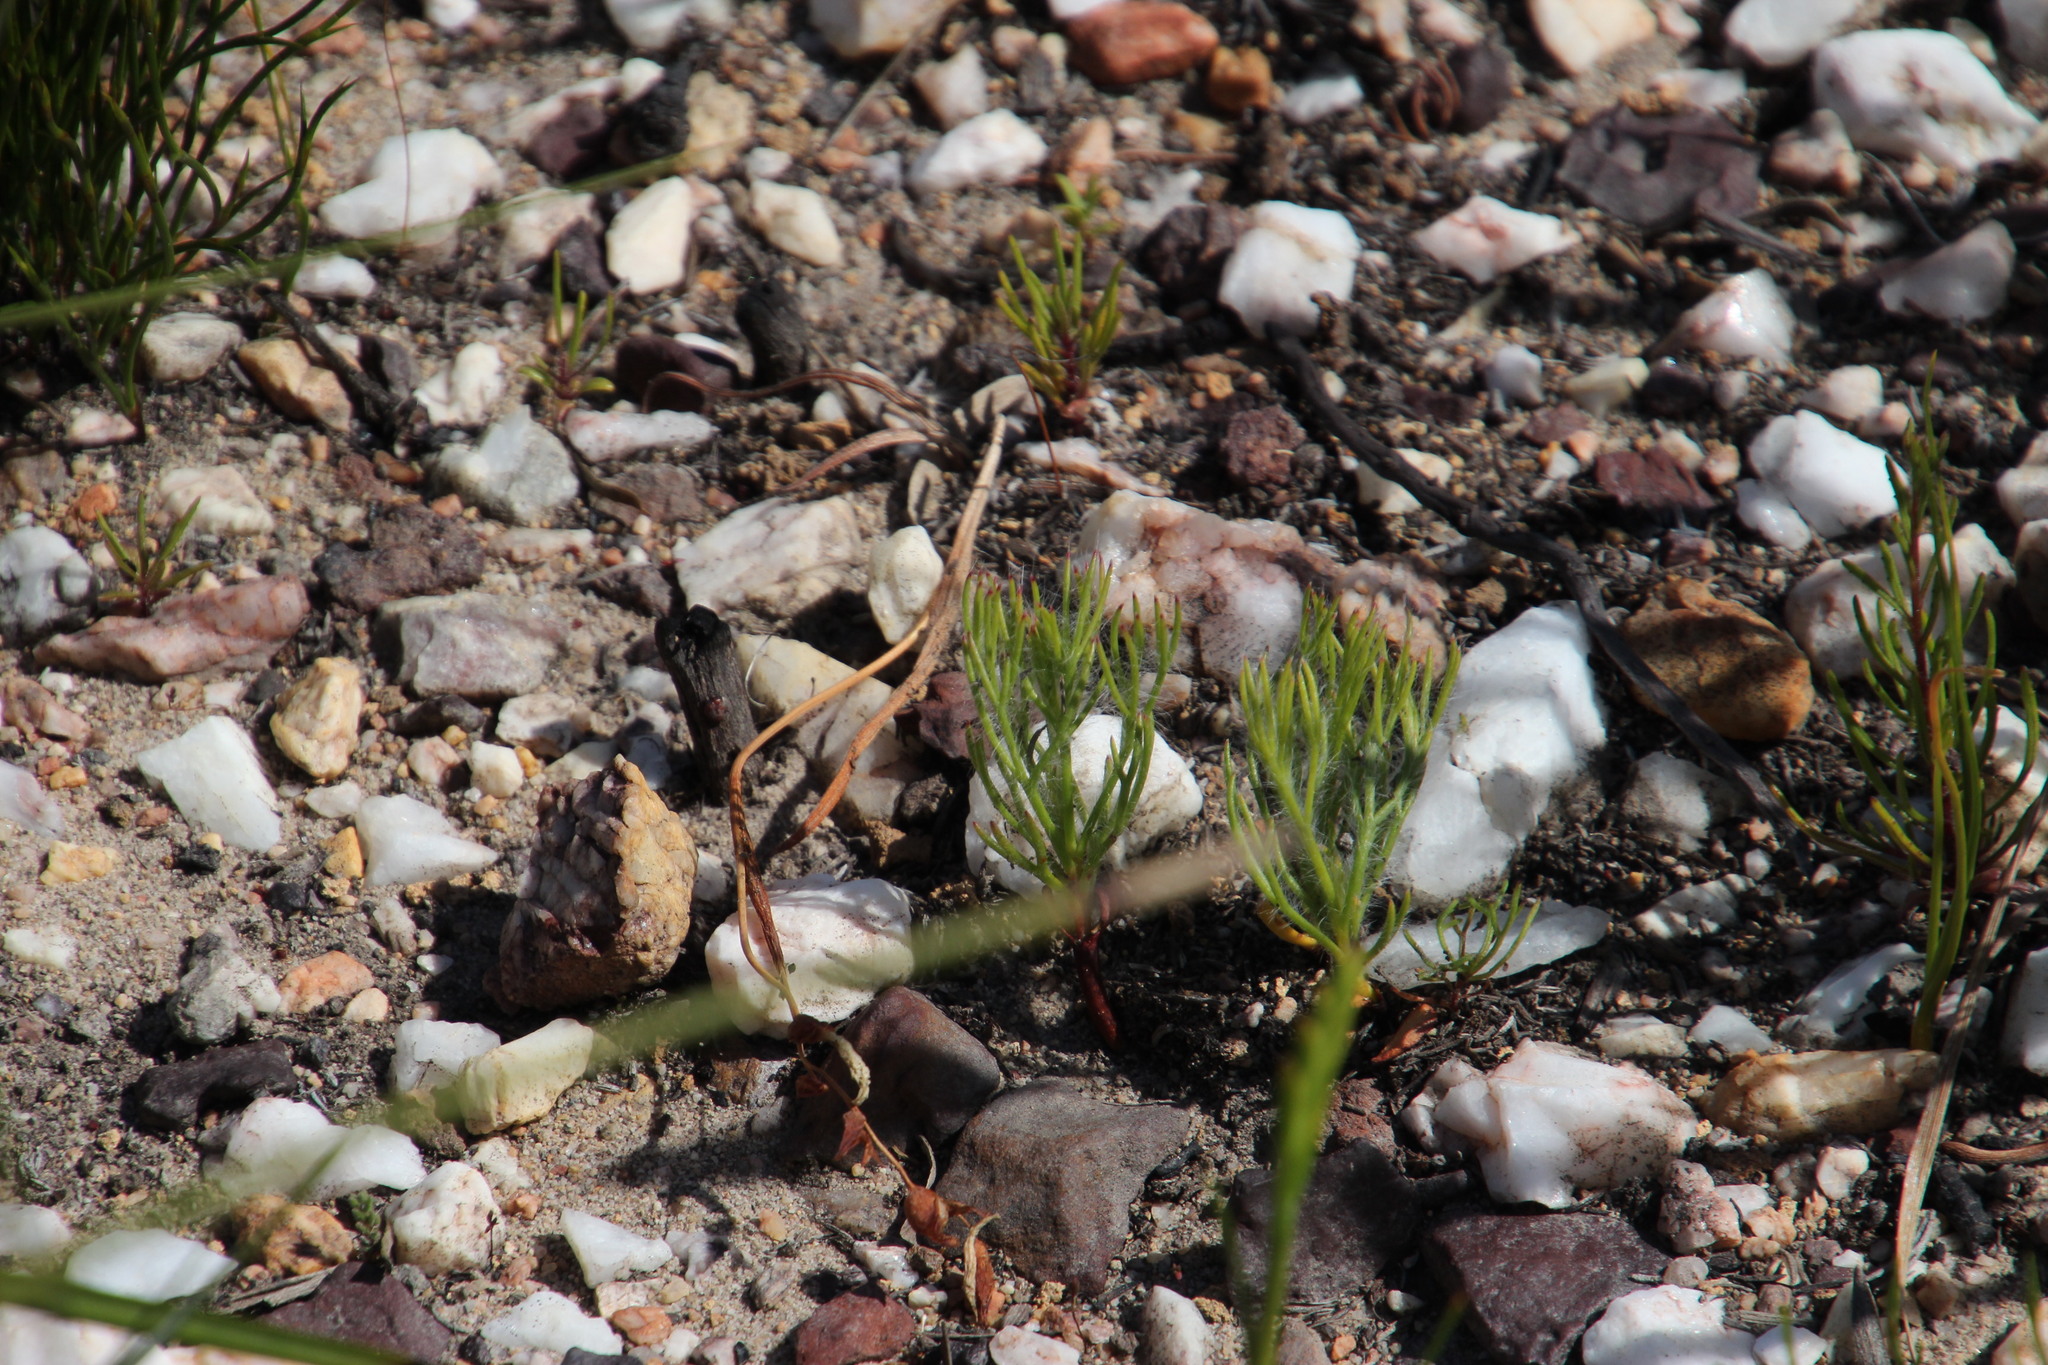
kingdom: Plantae
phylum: Tracheophyta
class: Magnoliopsida
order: Proteales
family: Proteaceae
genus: Serruria
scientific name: Serruria elongata
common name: Long-stalk spiderhead
